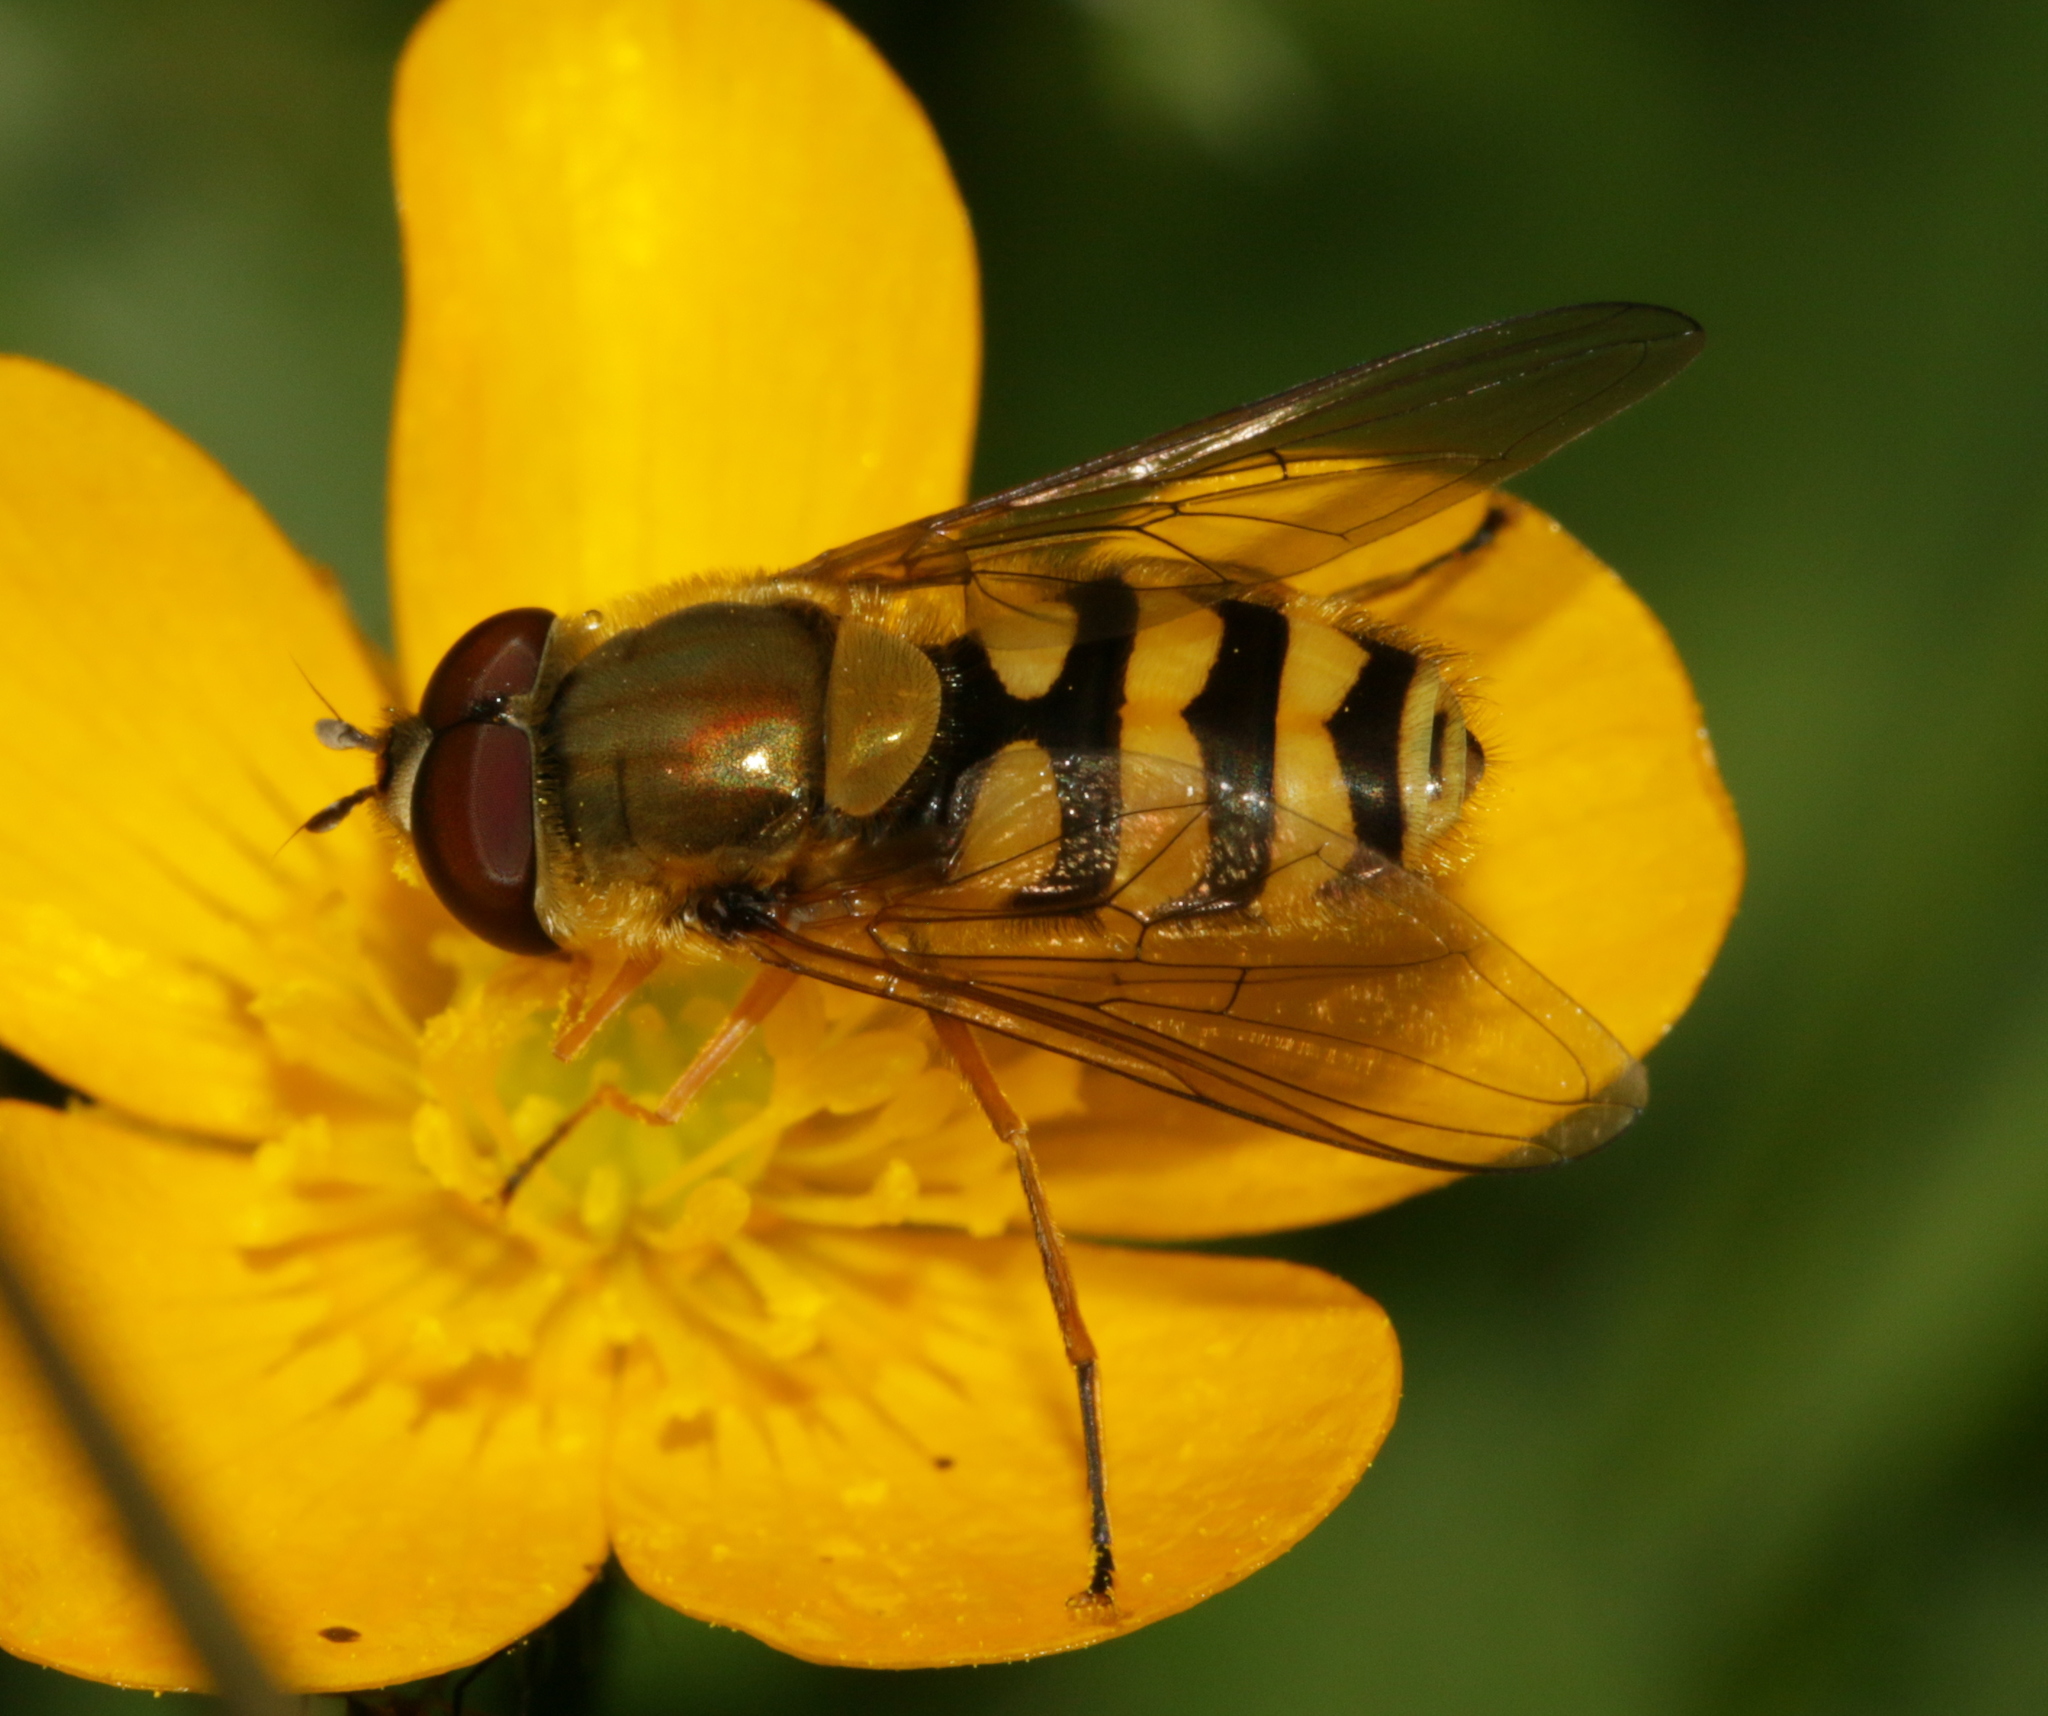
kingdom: Animalia
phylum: Arthropoda
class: Insecta
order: Diptera
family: Syrphidae
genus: Syrphus
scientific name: Syrphus
